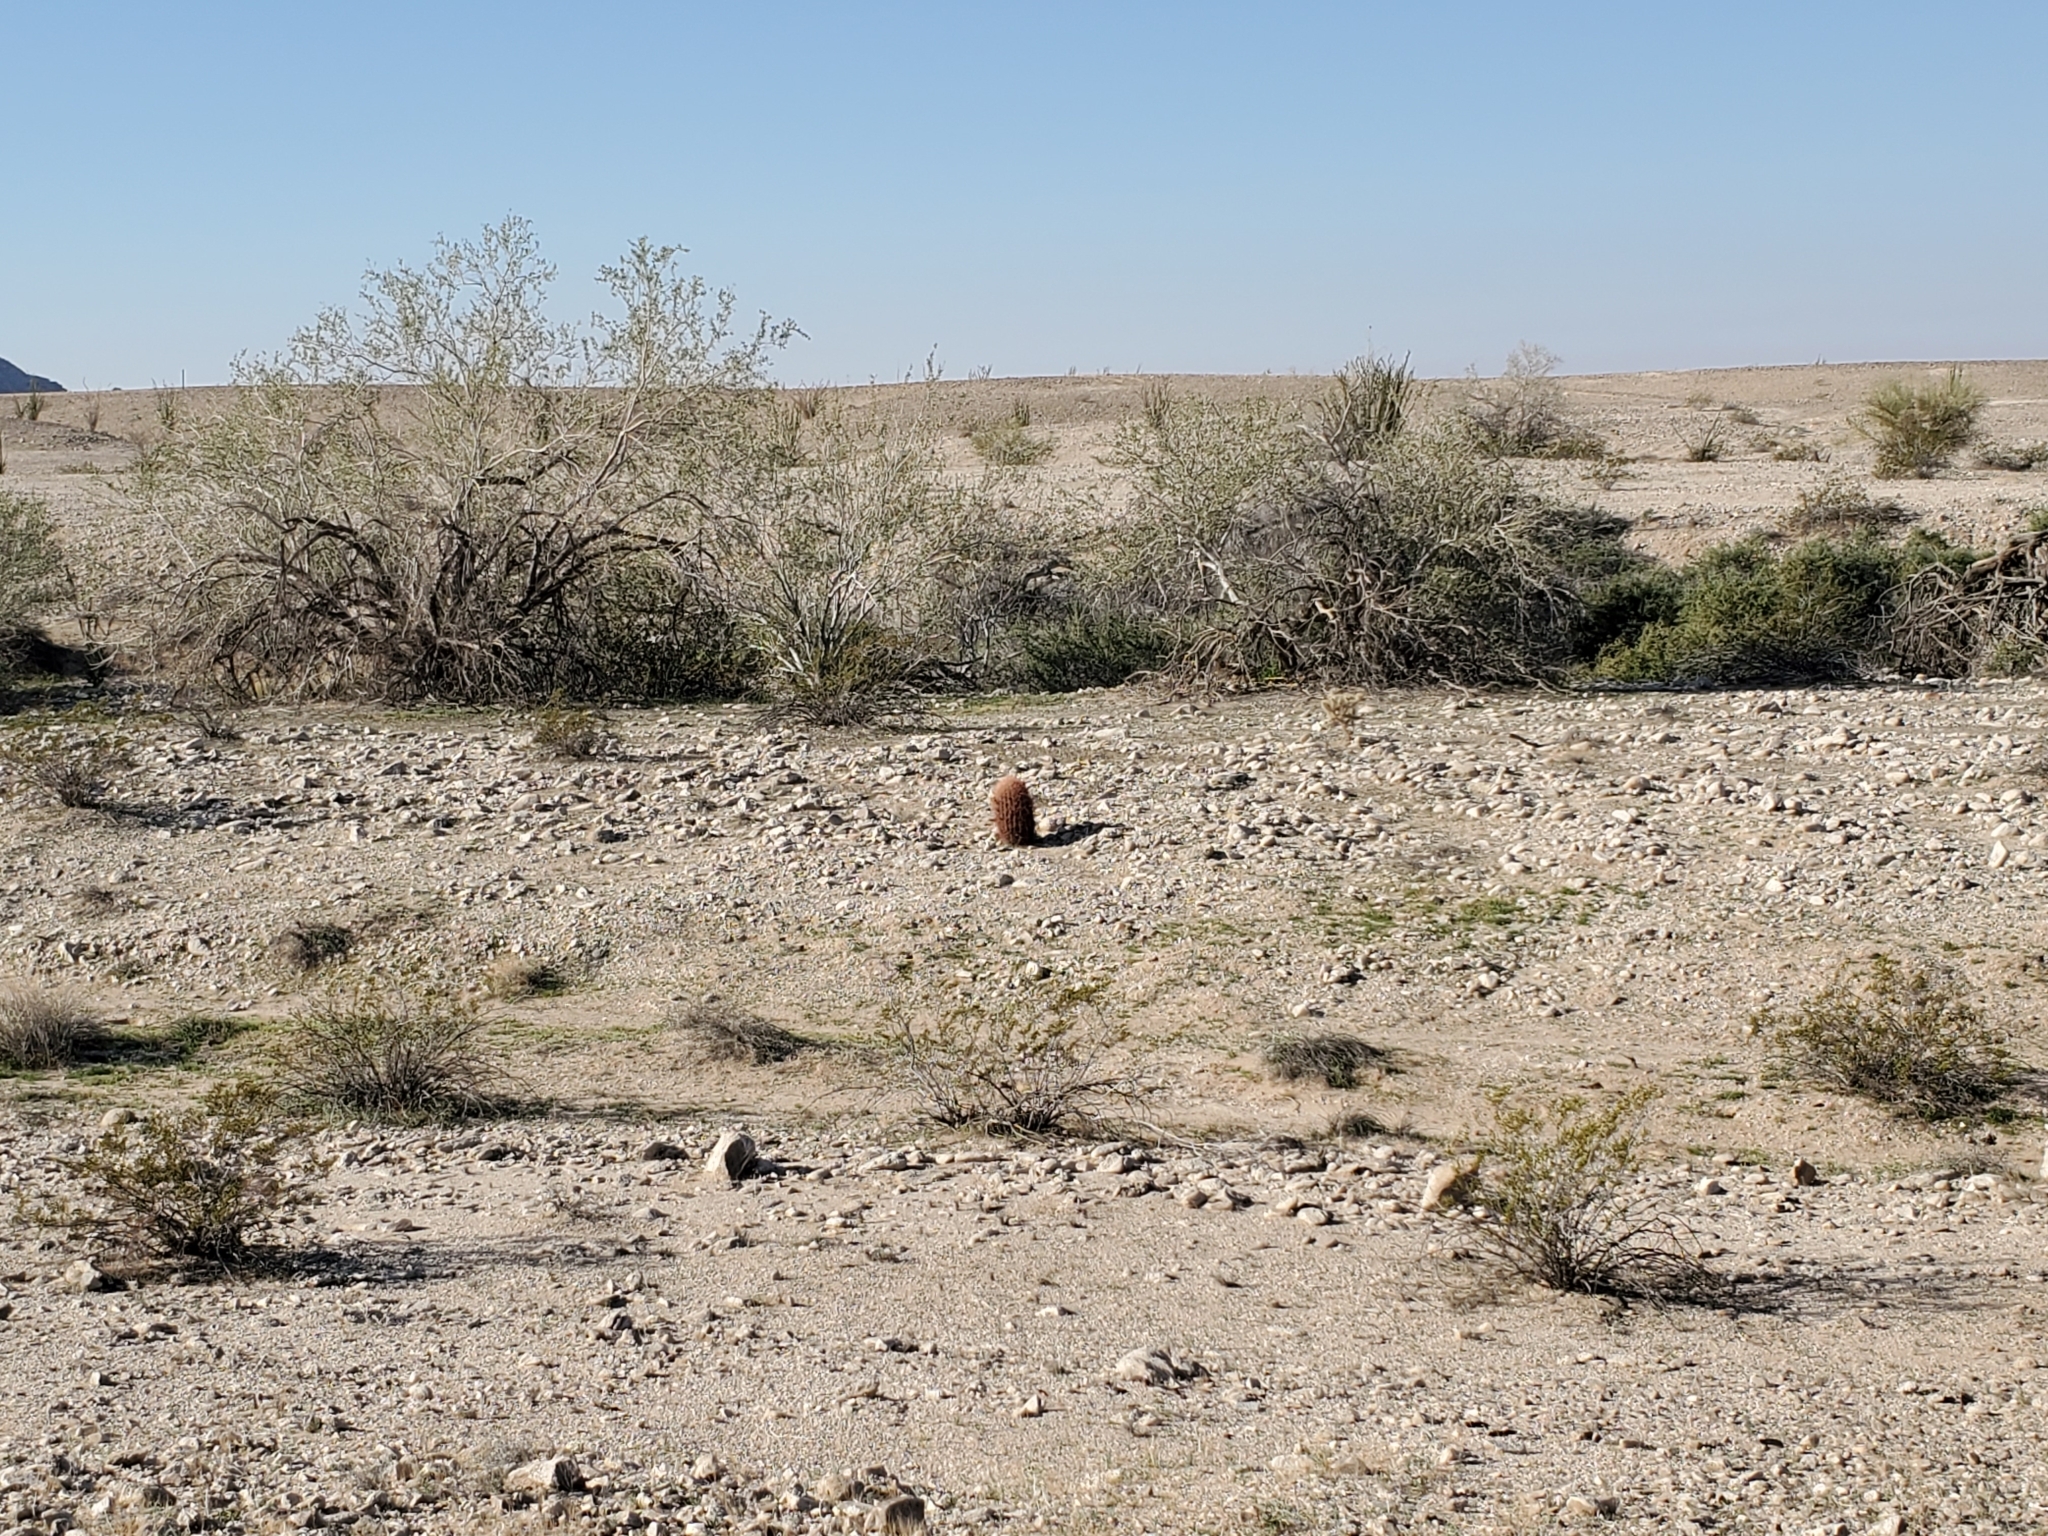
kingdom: Plantae
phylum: Tracheophyta
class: Magnoliopsida
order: Caryophyllales
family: Cactaceae
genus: Ferocactus
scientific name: Ferocactus cylindraceus
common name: California barrel cactus
